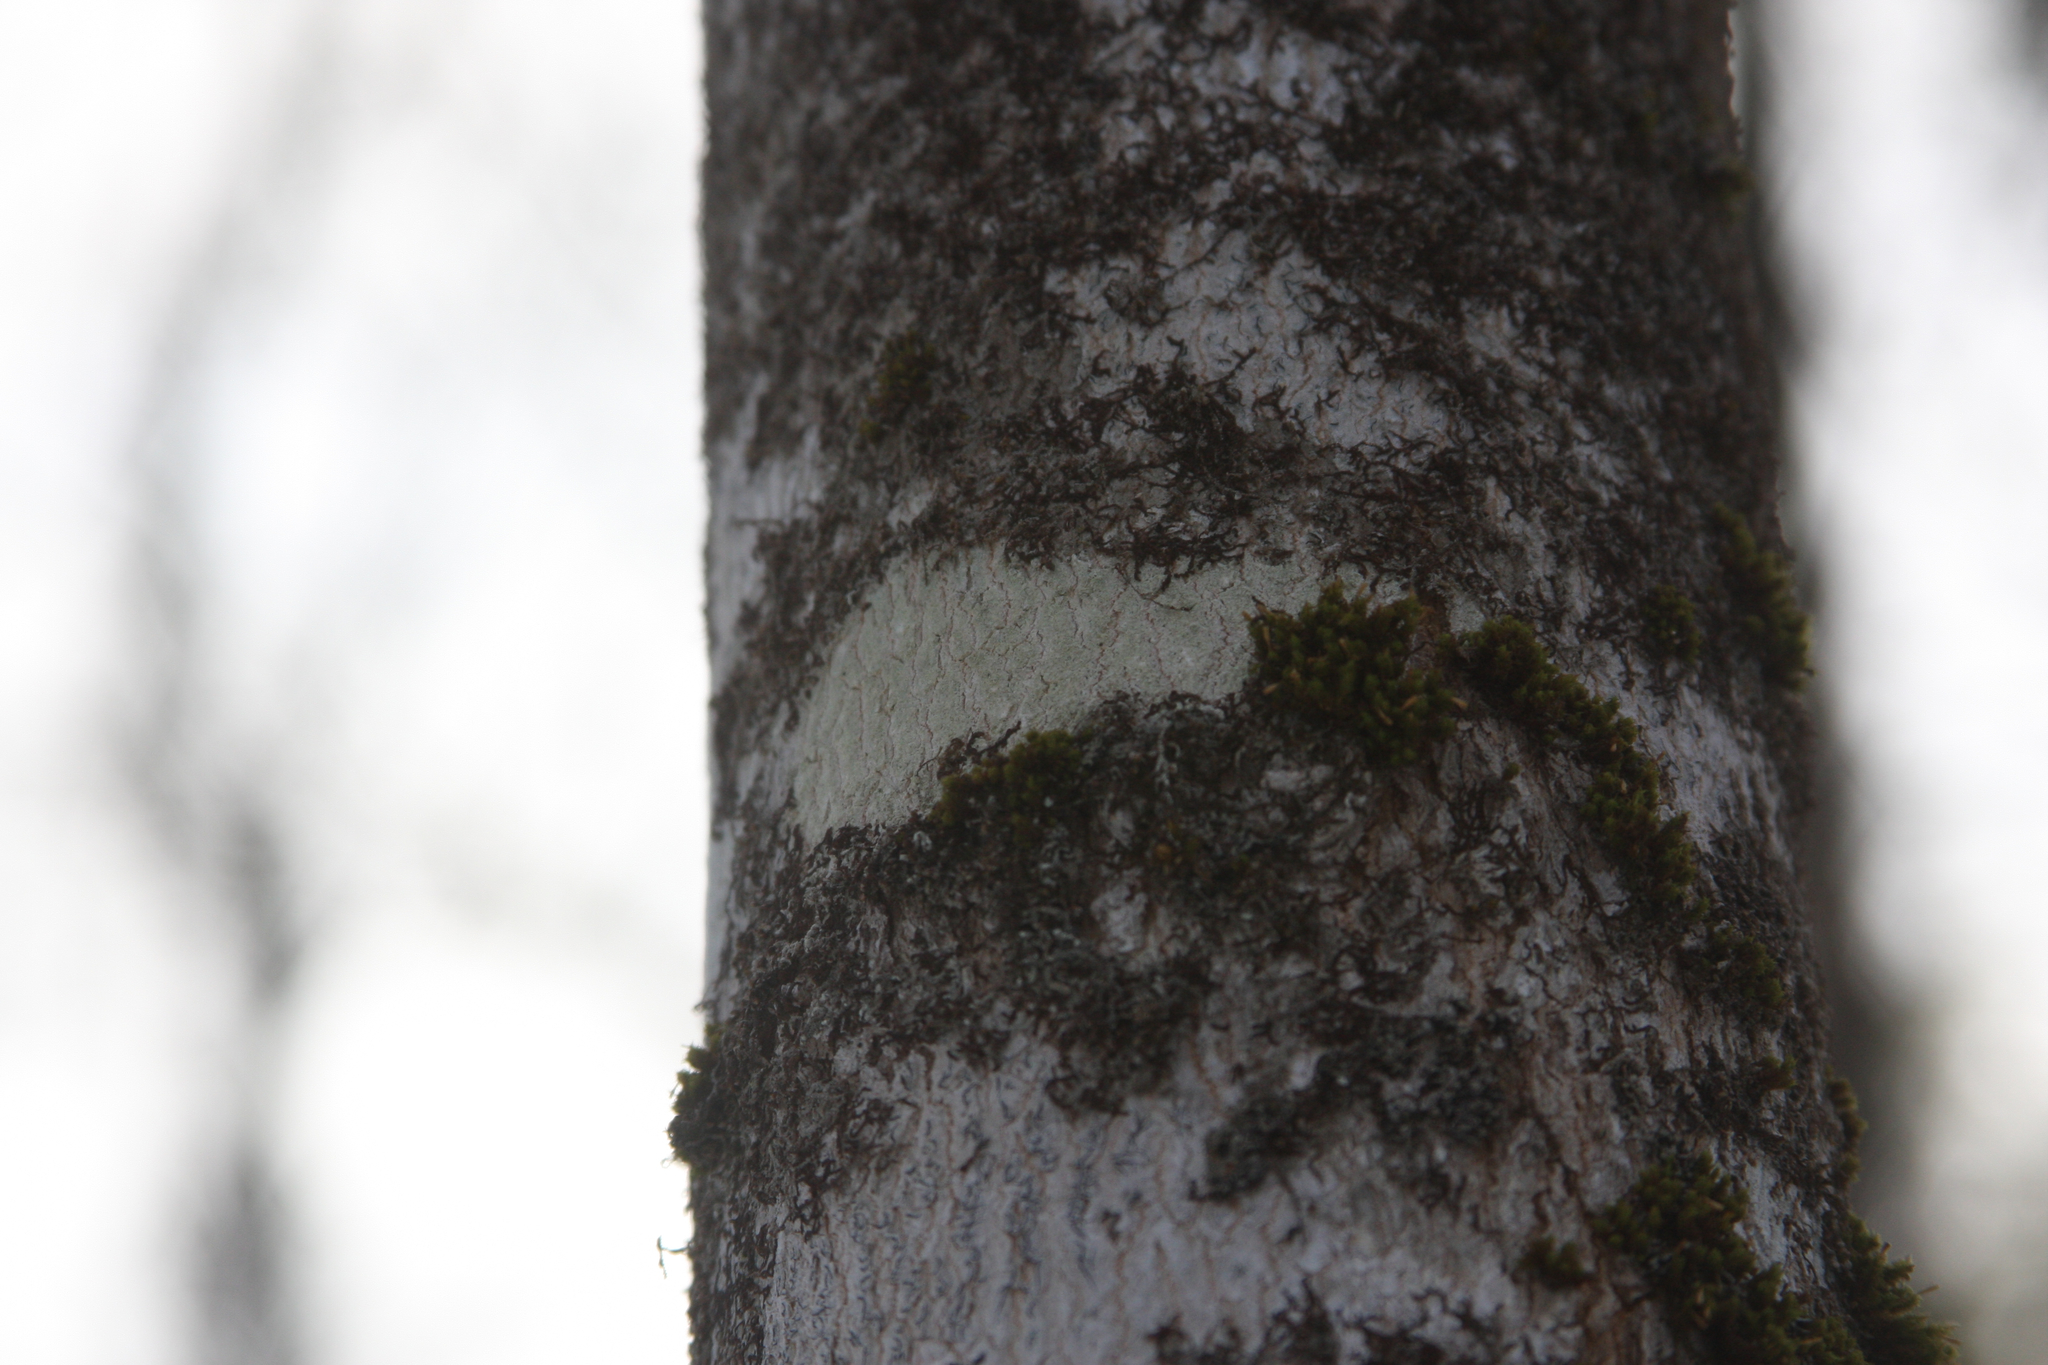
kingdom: Plantae
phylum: Bryophyta
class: Bryopsida
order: Orthotrichales
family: Orthotrichaceae
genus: Ulota
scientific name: Ulota crispa
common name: Crisped pincushion moss
